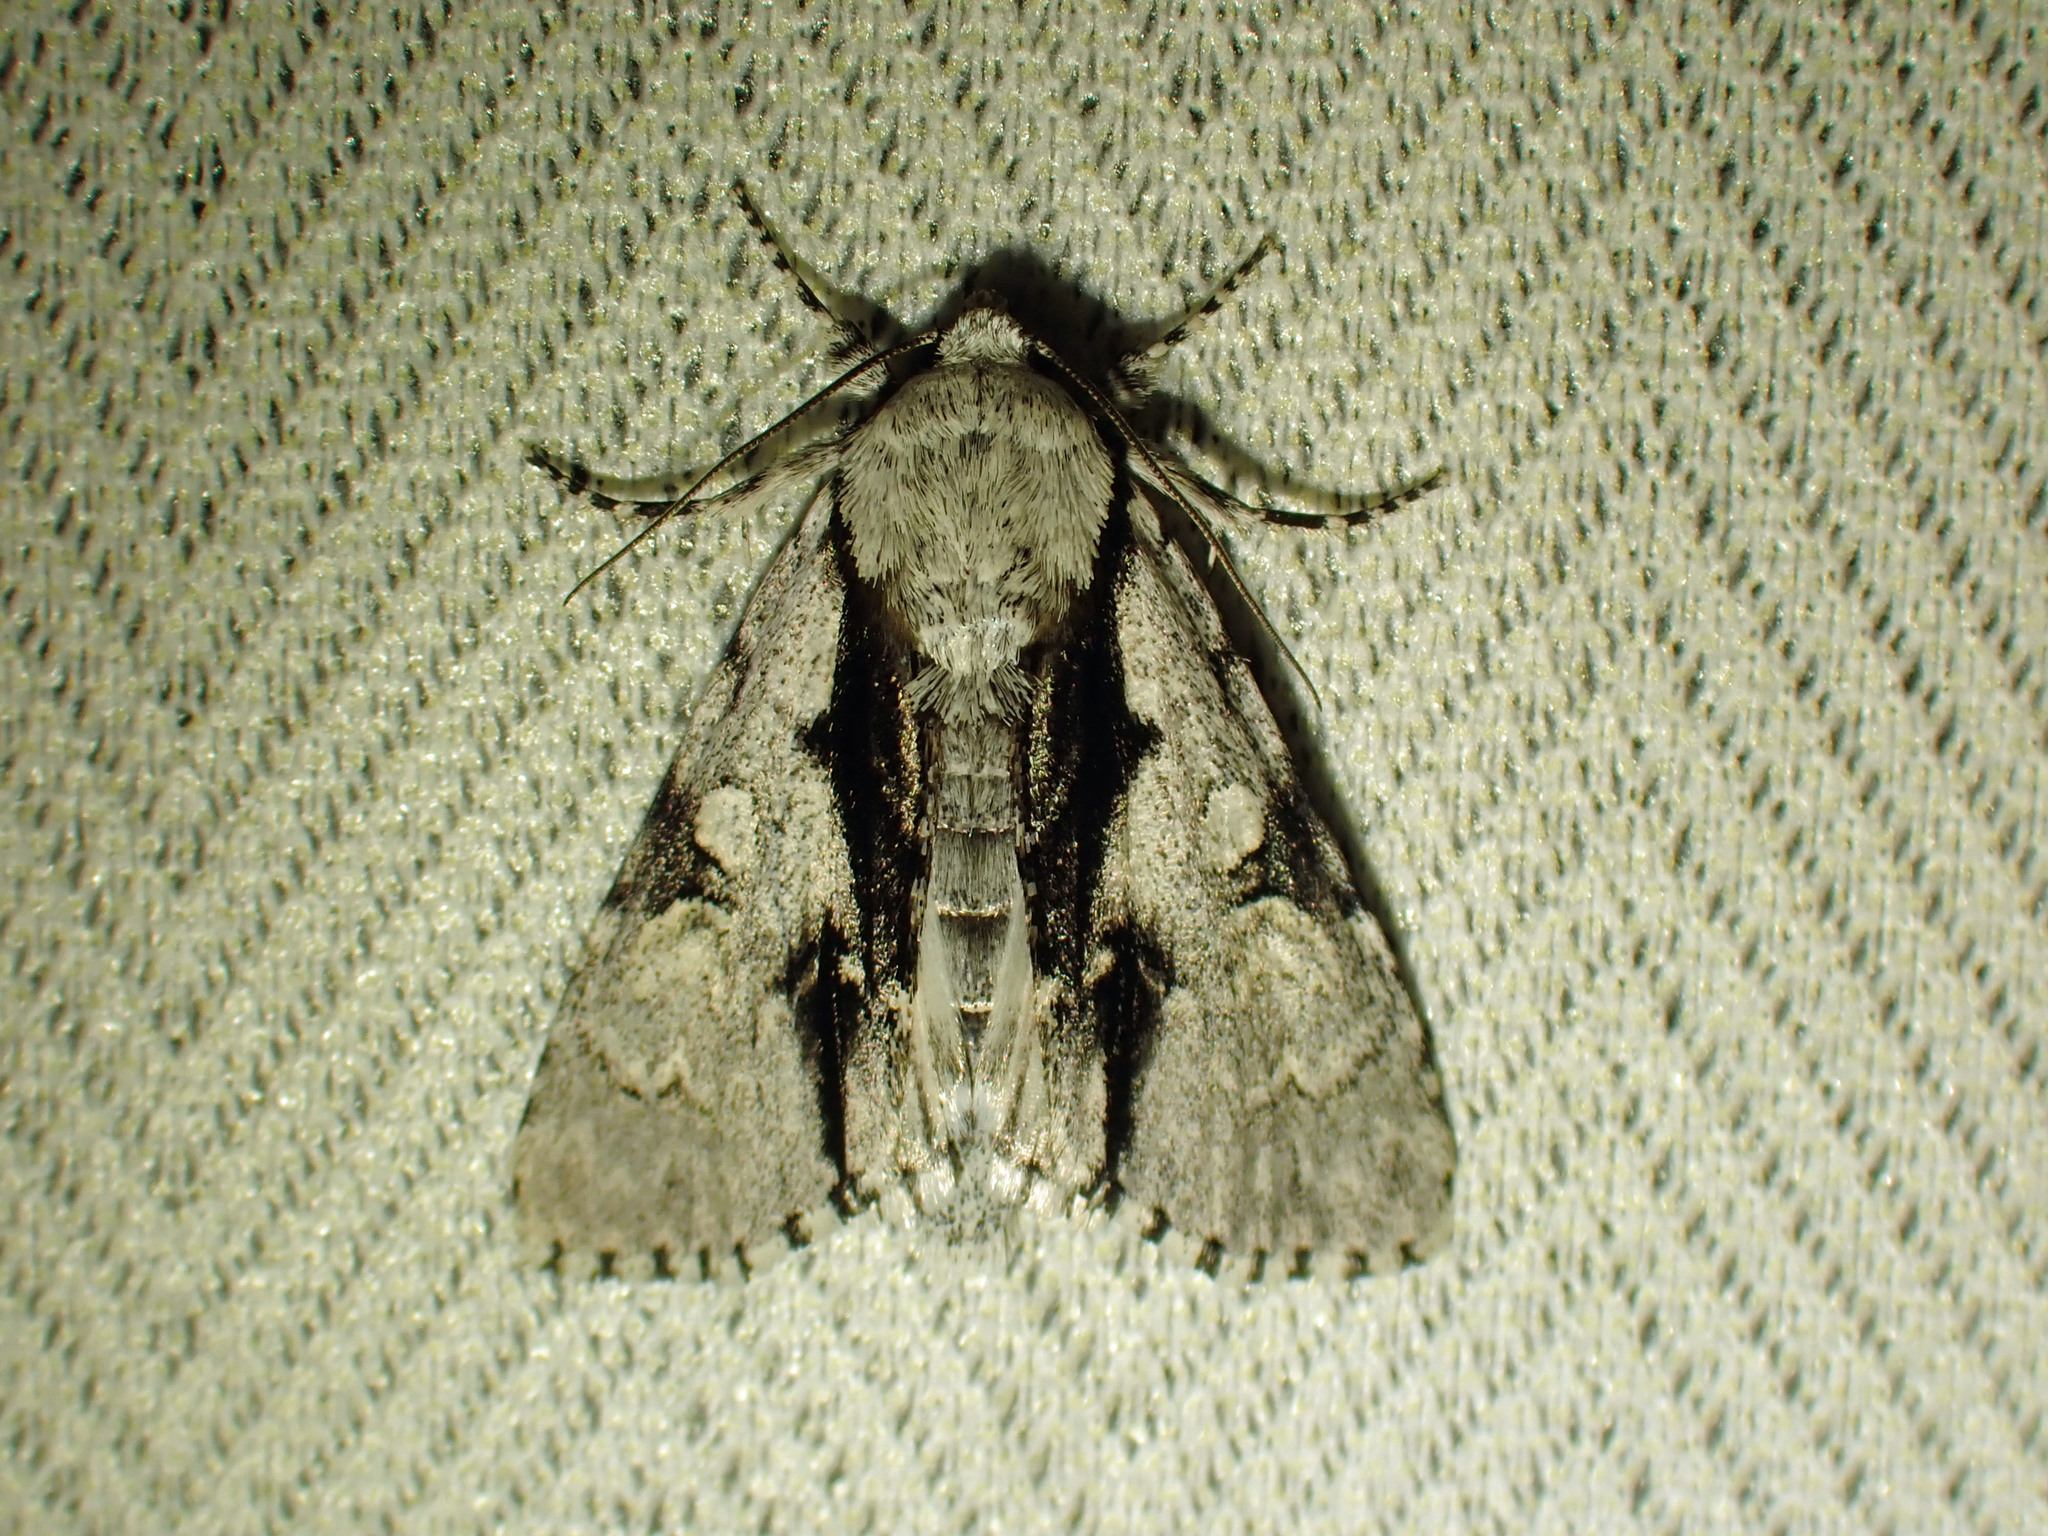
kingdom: Animalia
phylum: Arthropoda
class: Insecta
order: Lepidoptera
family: Noctuidae
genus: Acronicta
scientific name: Acronicta funeralis
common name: Funerary dagger
